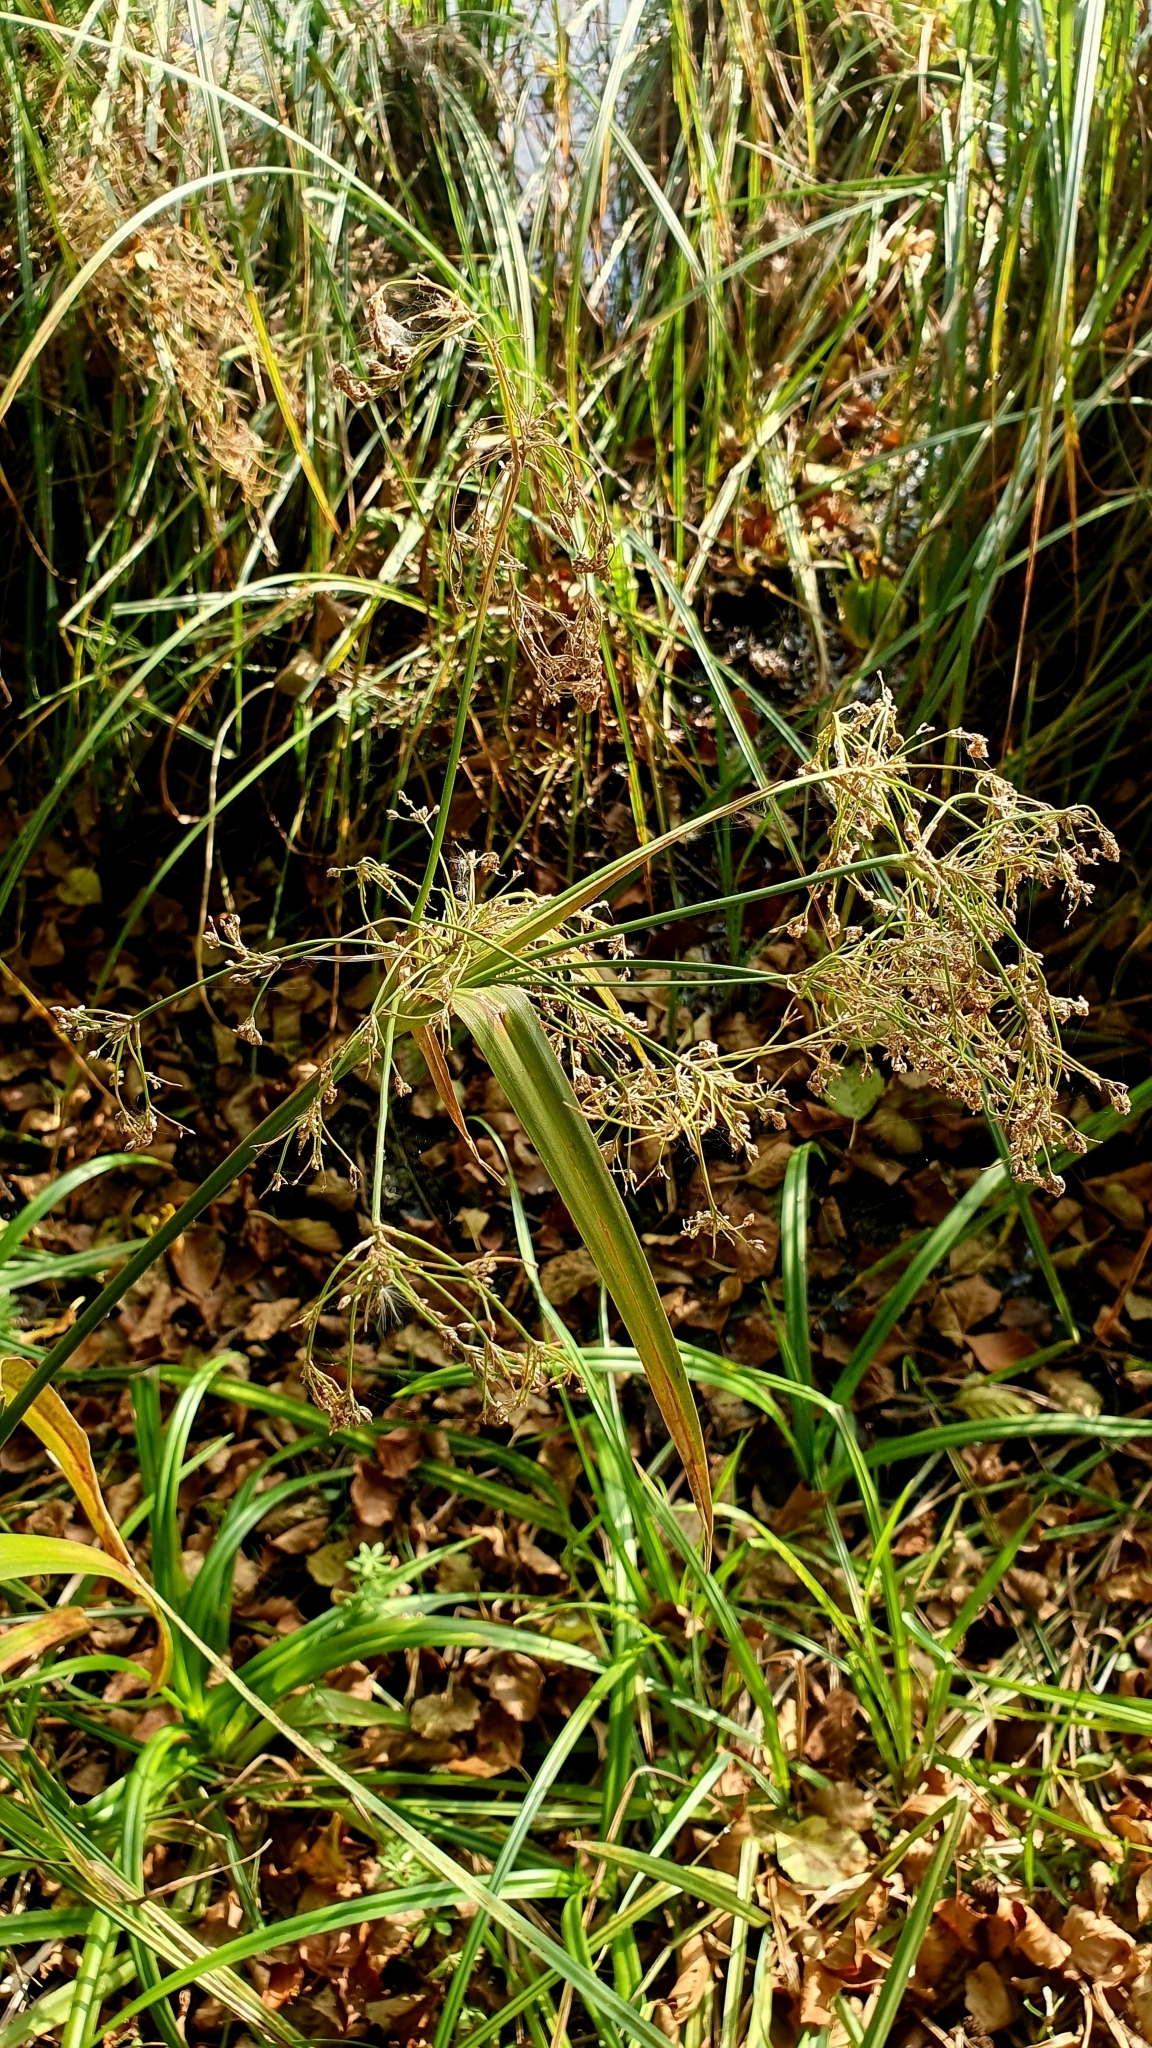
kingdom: Plantae
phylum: Tracheophyta
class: Liliopsida
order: Poales
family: Cyperaceae
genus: Scirpus
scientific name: Scirpus sylvaticus
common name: Wood club-rush
